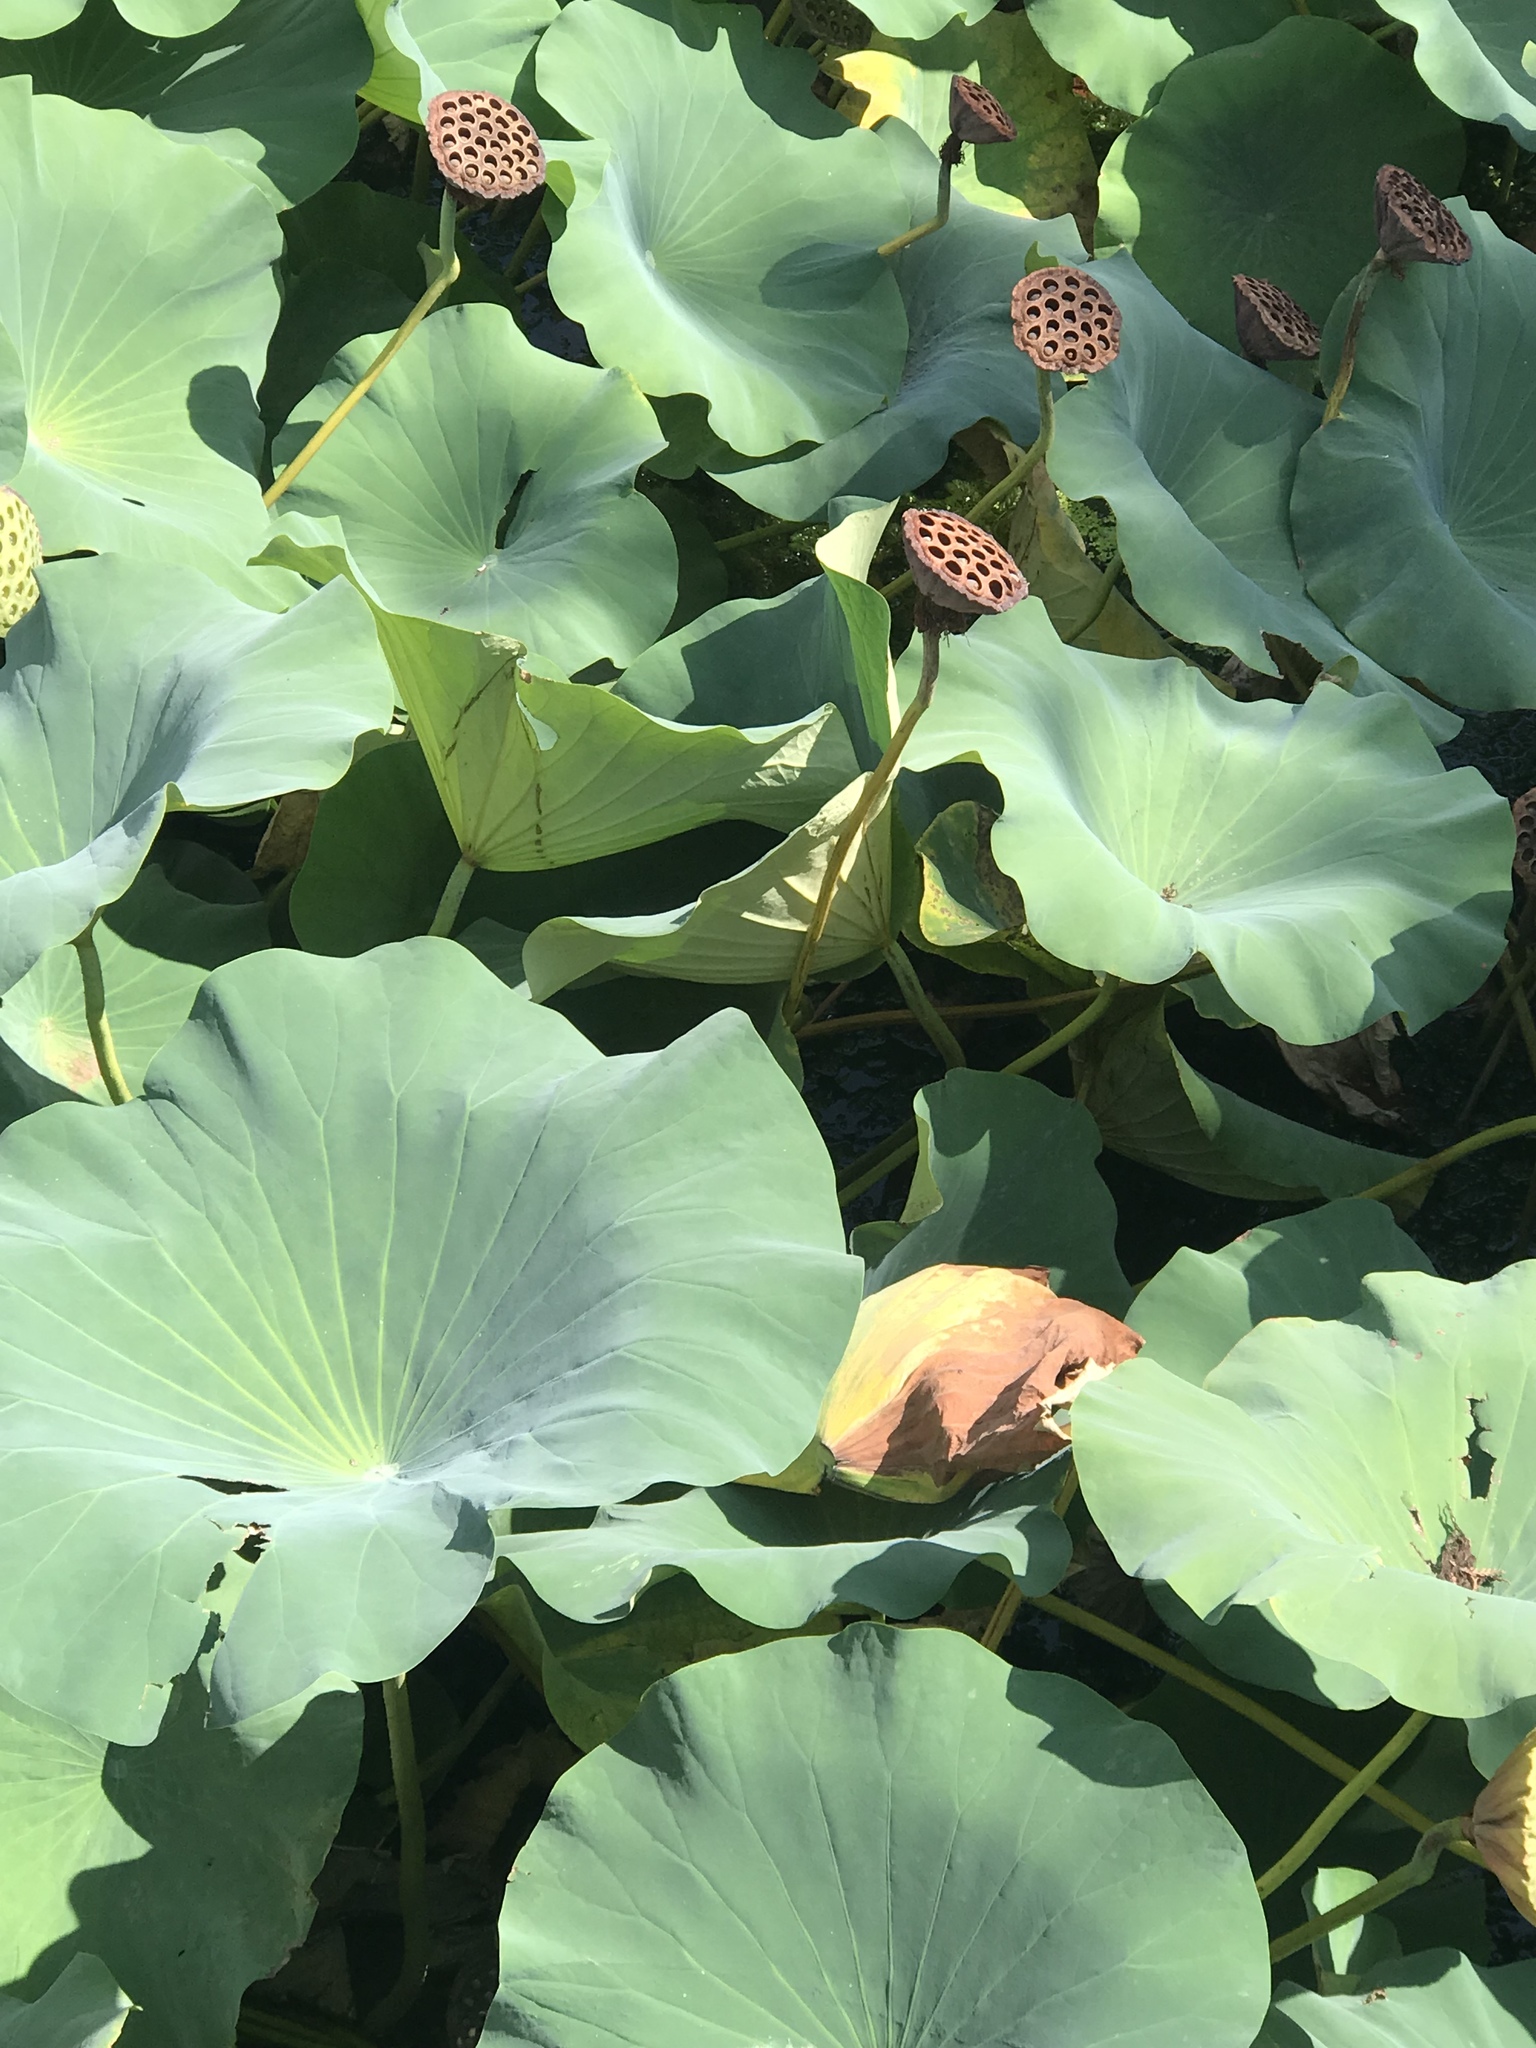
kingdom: Plantae
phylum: Tracheophyta
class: Magnoliopsida
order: Proteales
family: Nelumbonaceae
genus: Nelumbo
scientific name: Nelumbo nucifera
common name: Sacred lotus
